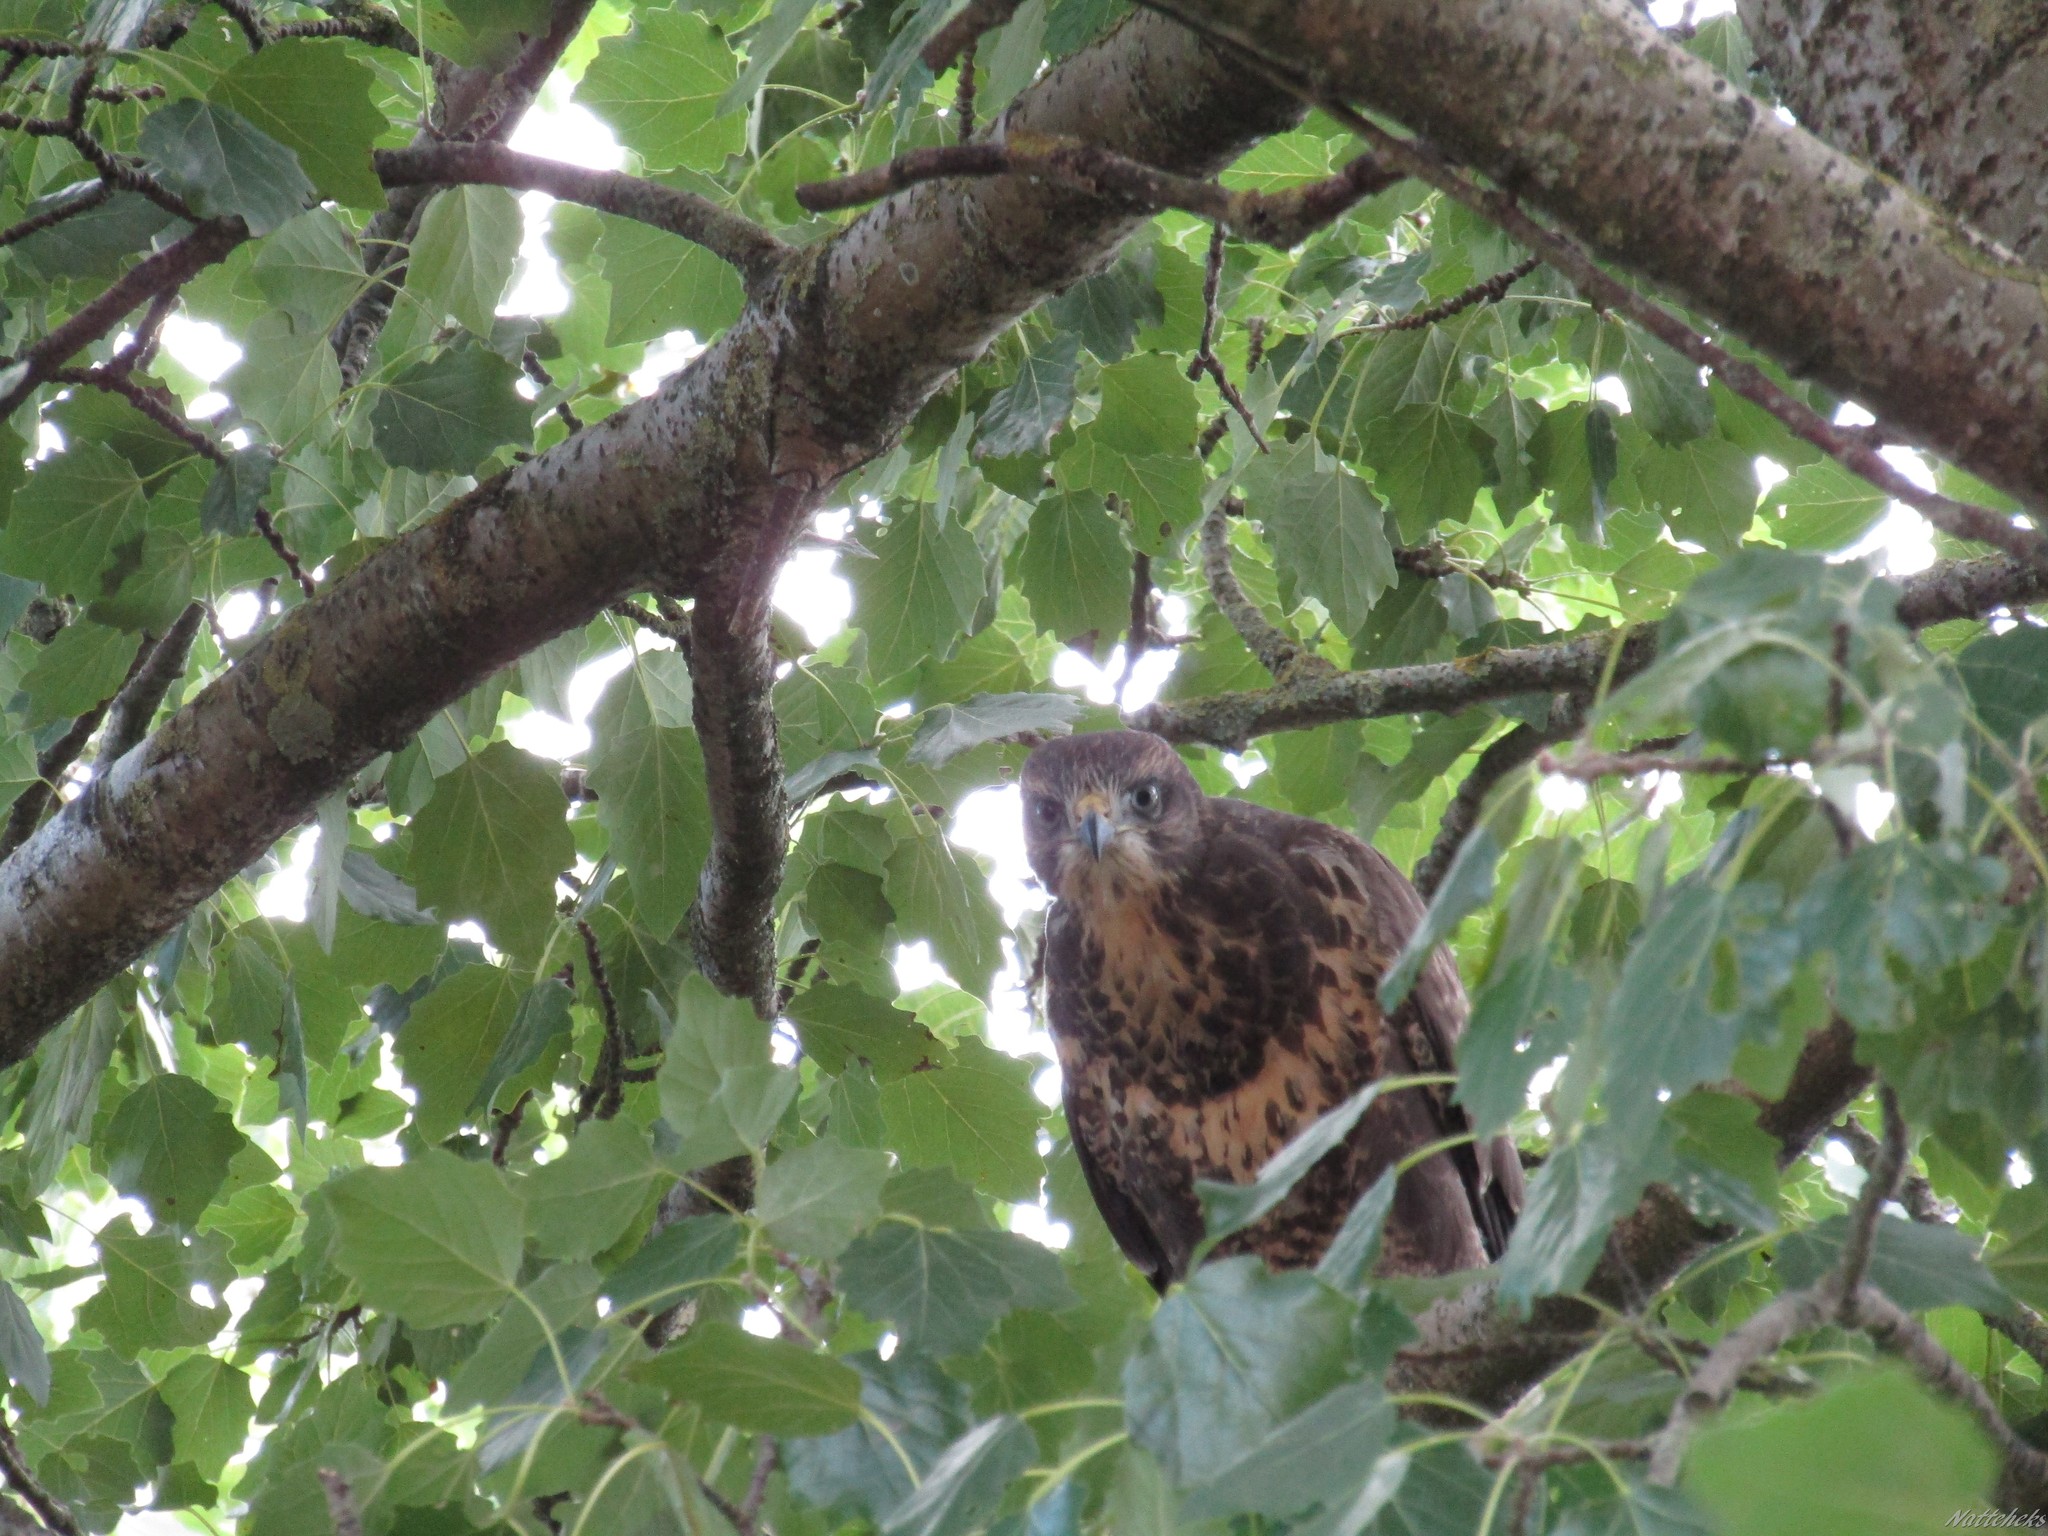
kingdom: Animalia
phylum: Chordata
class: Aves
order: Accipitriformes
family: Accipitridae
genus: Buteo
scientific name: Buteo buteo
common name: Common buzzard
